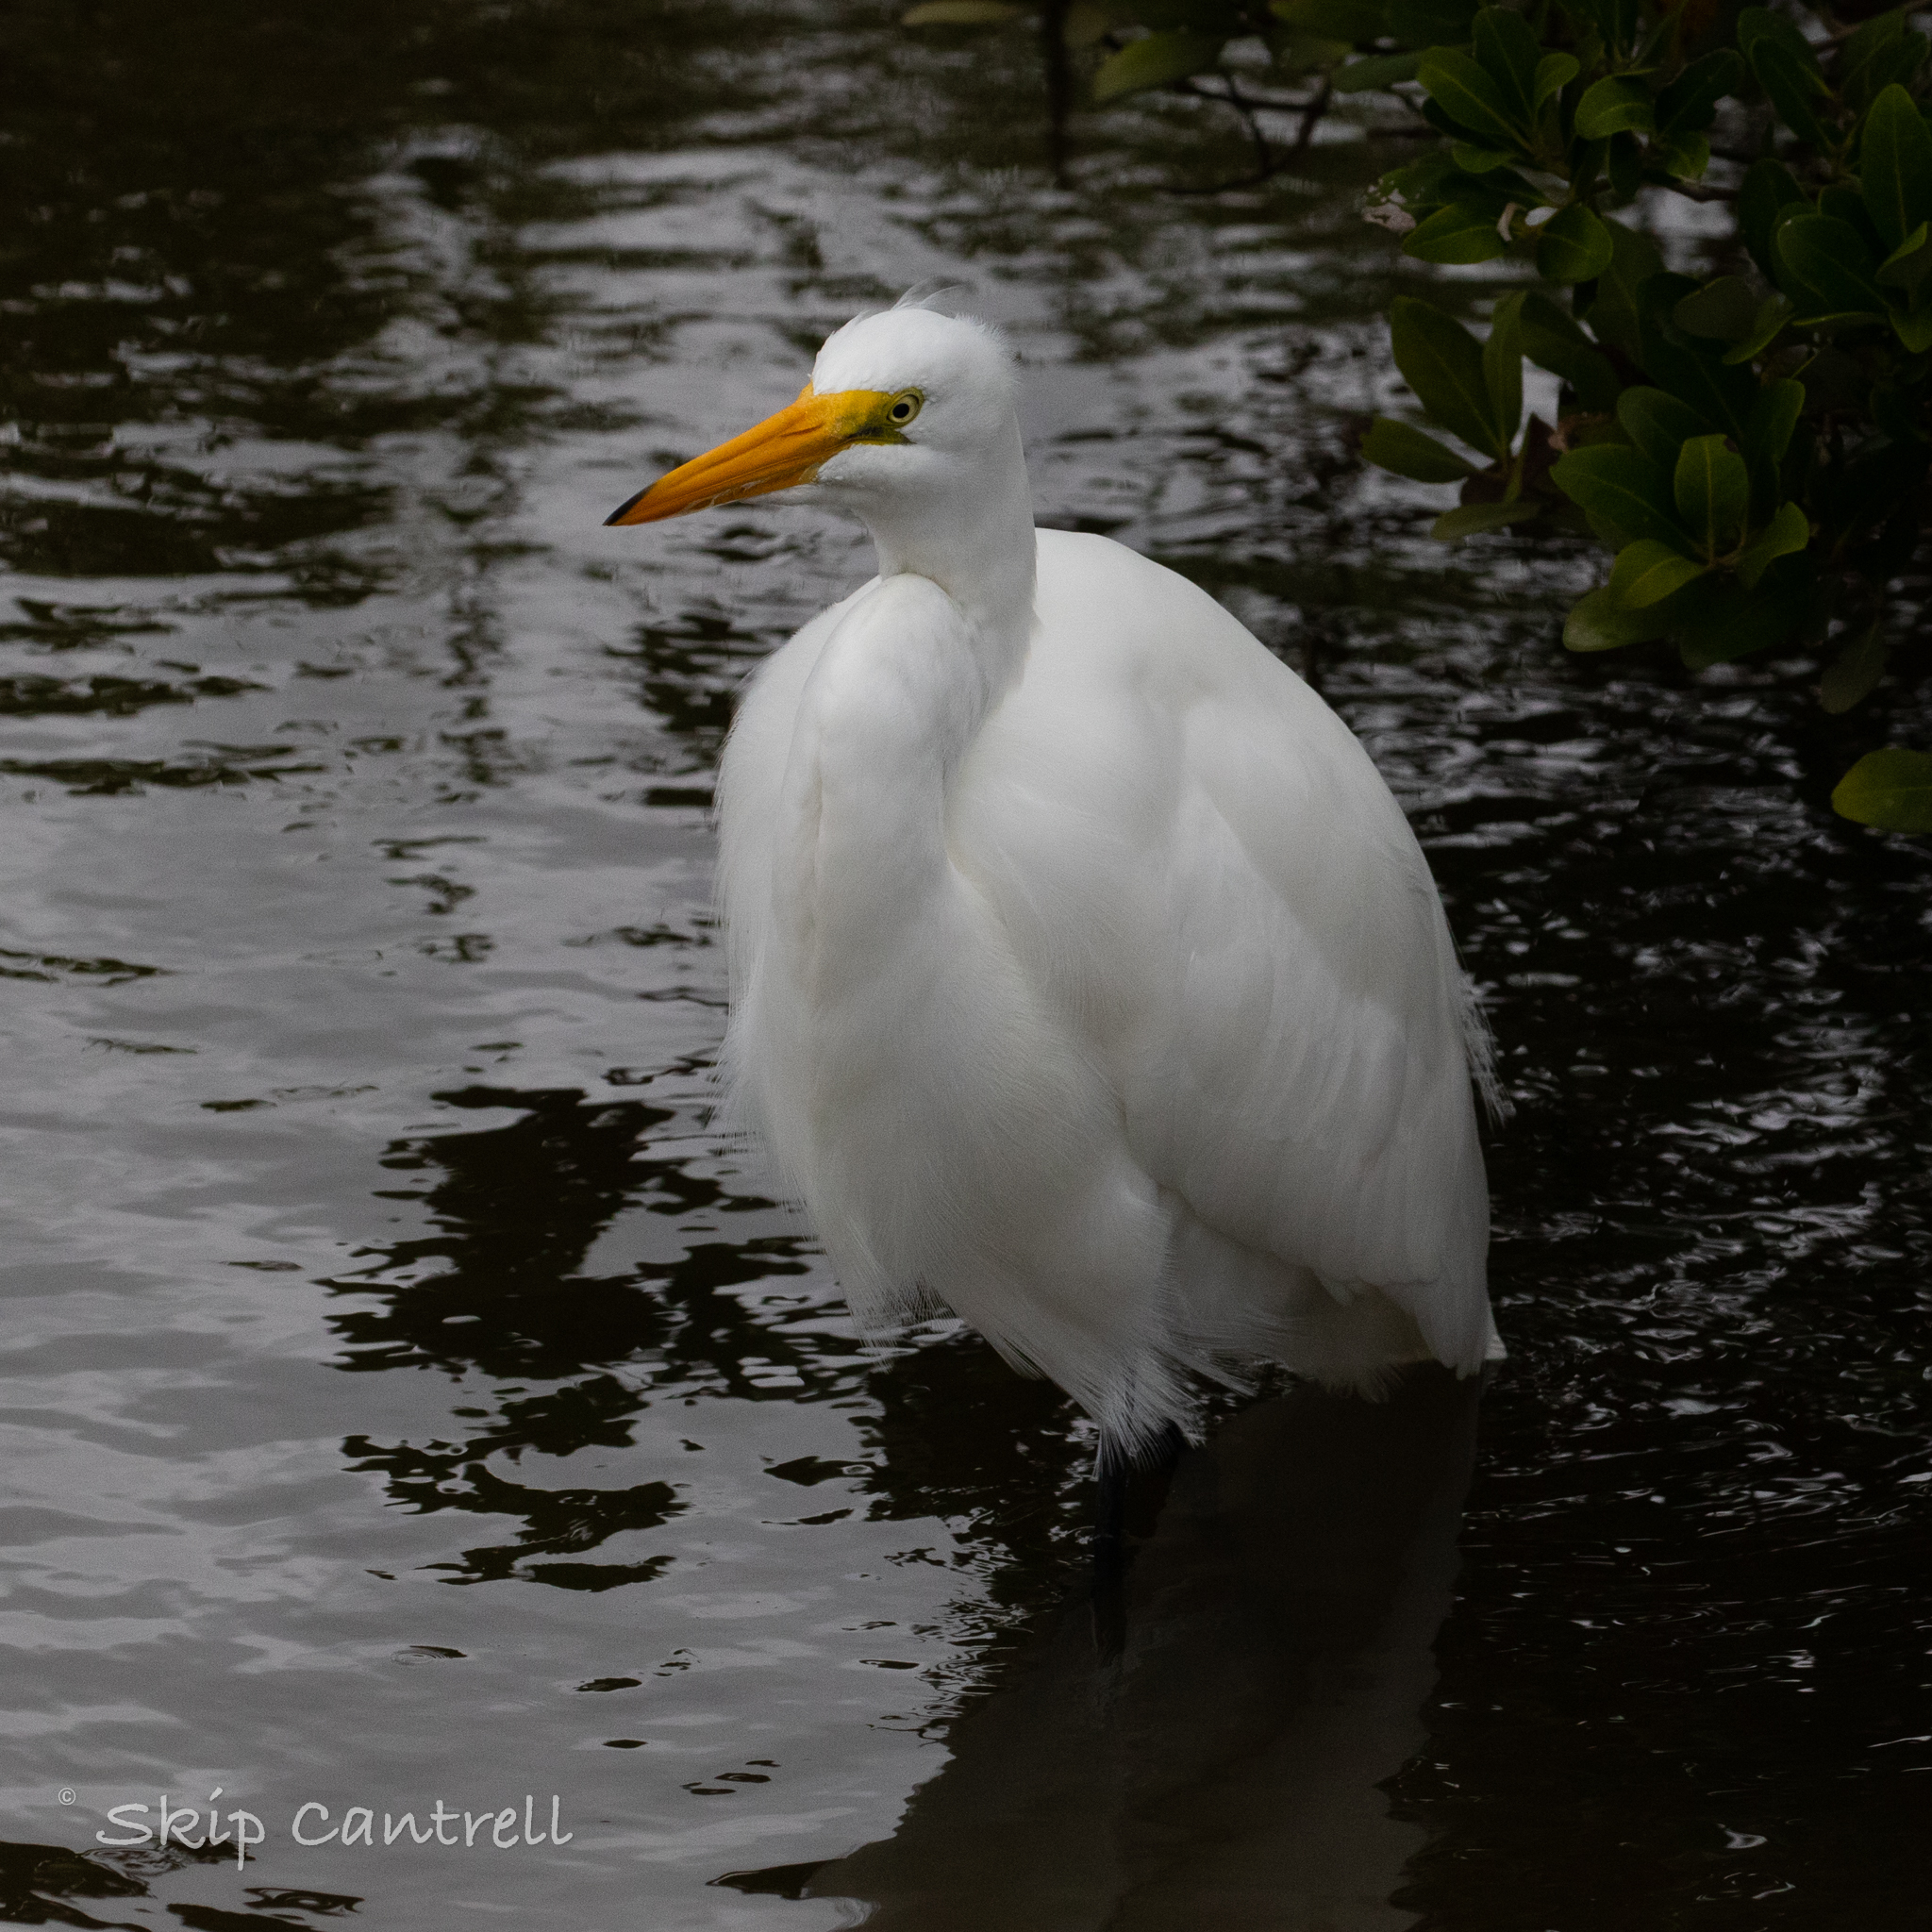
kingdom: Animalia
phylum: Chordata
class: Aves
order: Pelecaniformes
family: Ardeidae
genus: Ardea
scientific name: Ardea alba
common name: Great egret
